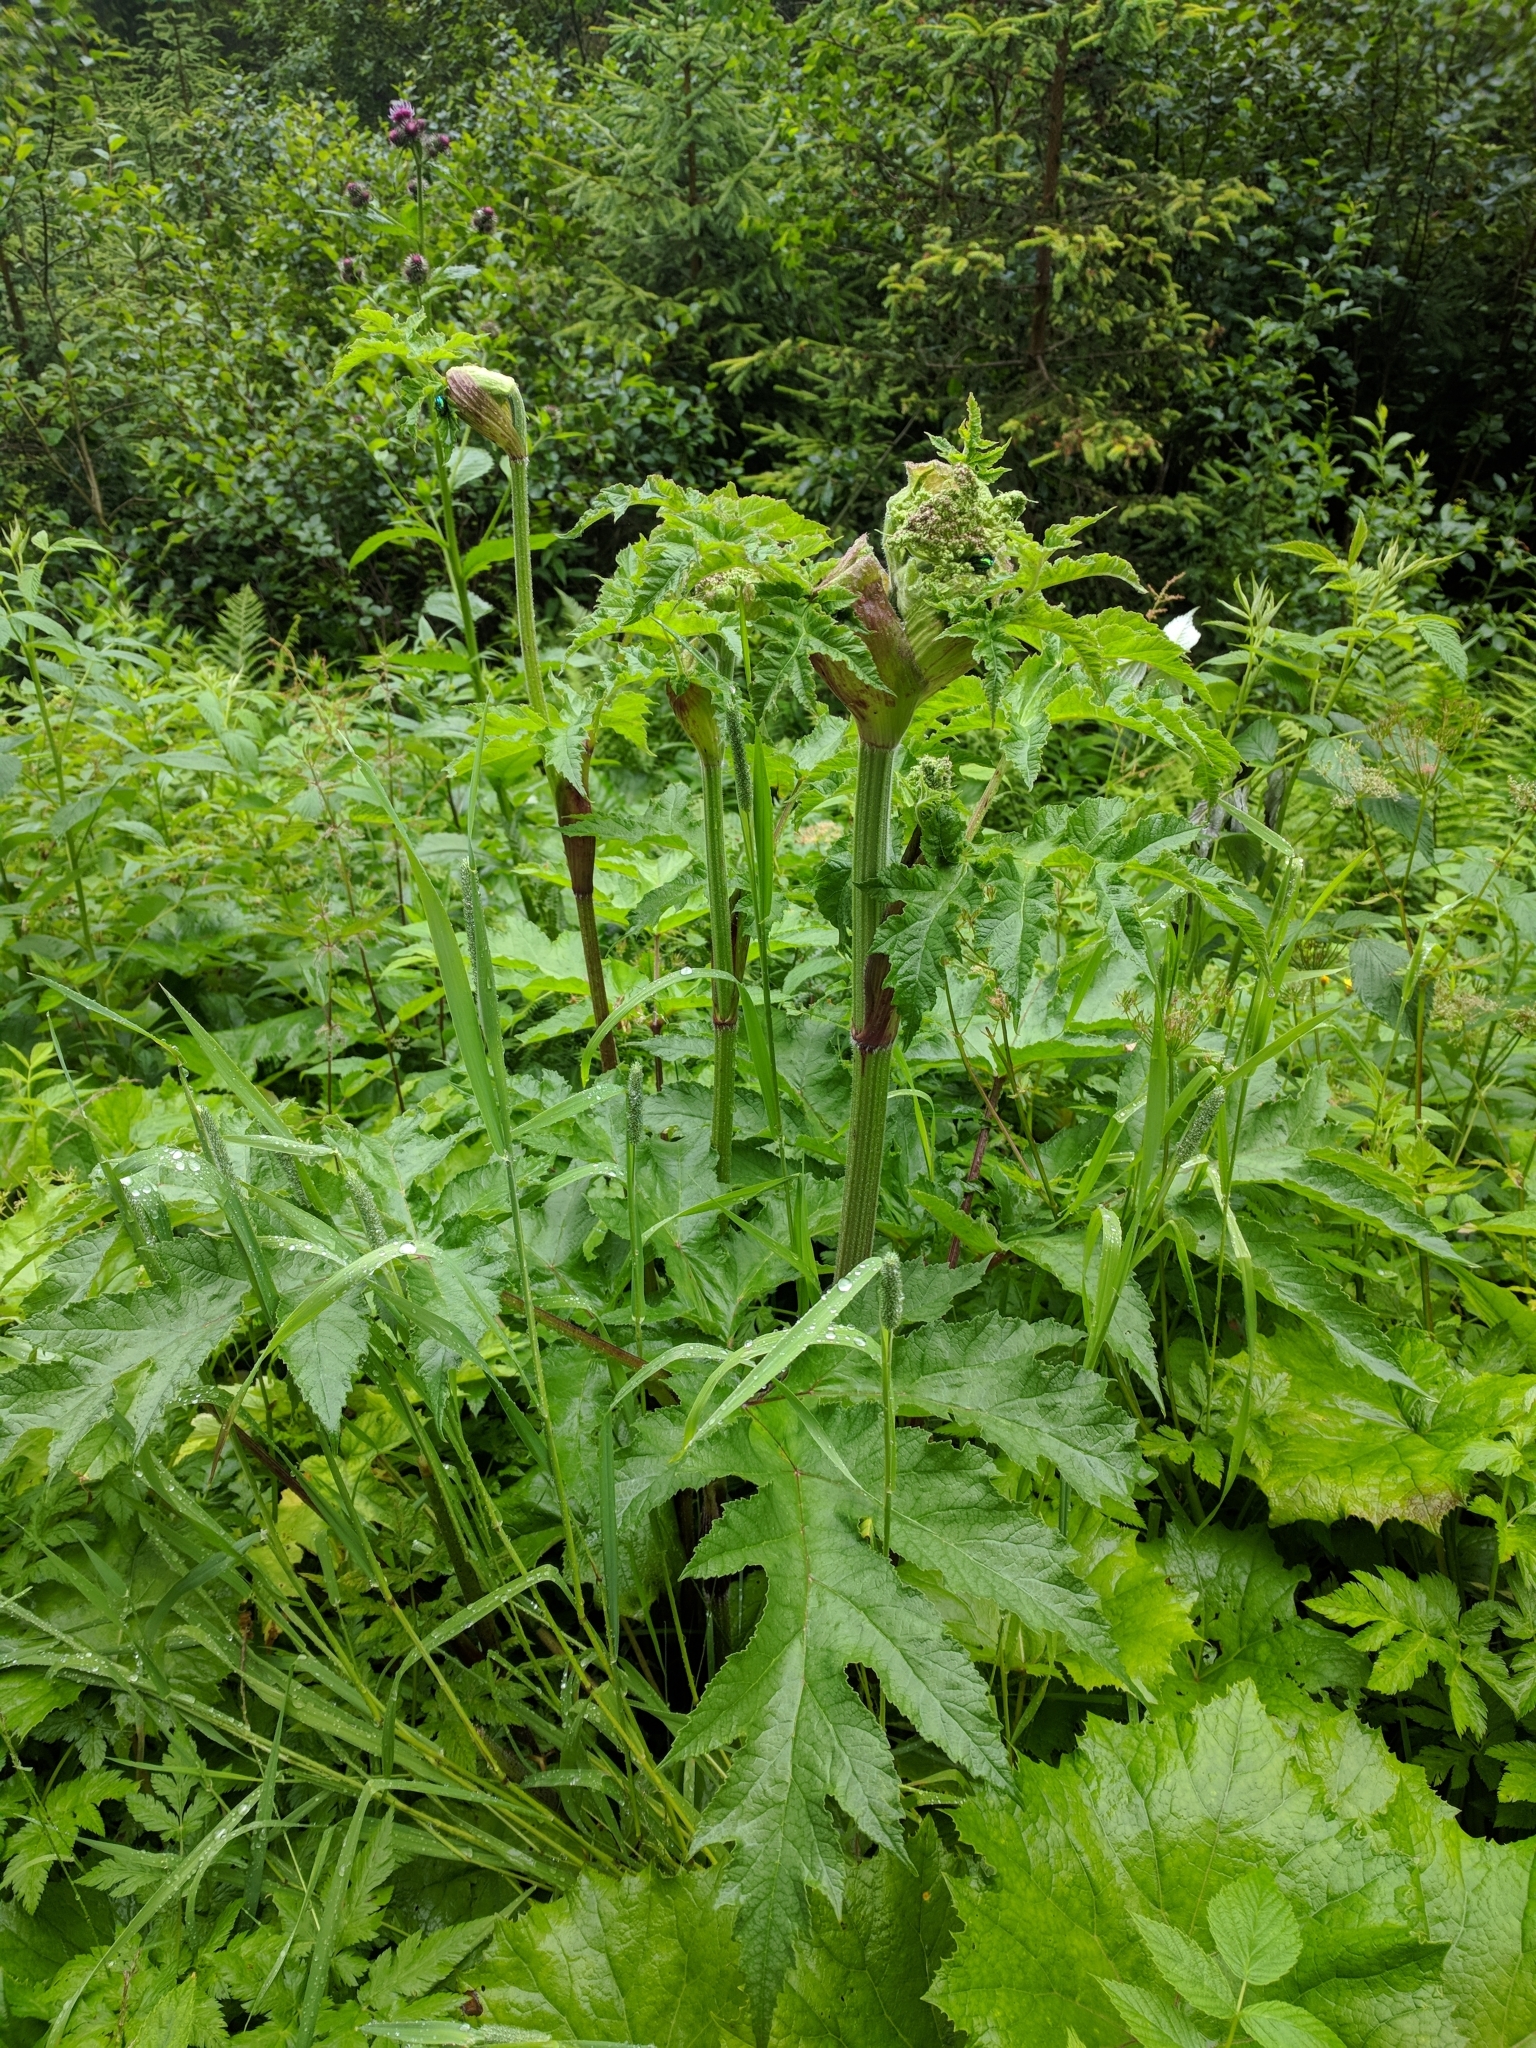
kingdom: Plantae
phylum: Tracheophyta
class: Magnoliopsida
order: Apiales
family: Apiaceae
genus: Heracleum
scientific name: Heracleum sphondylium
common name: Hogweed
